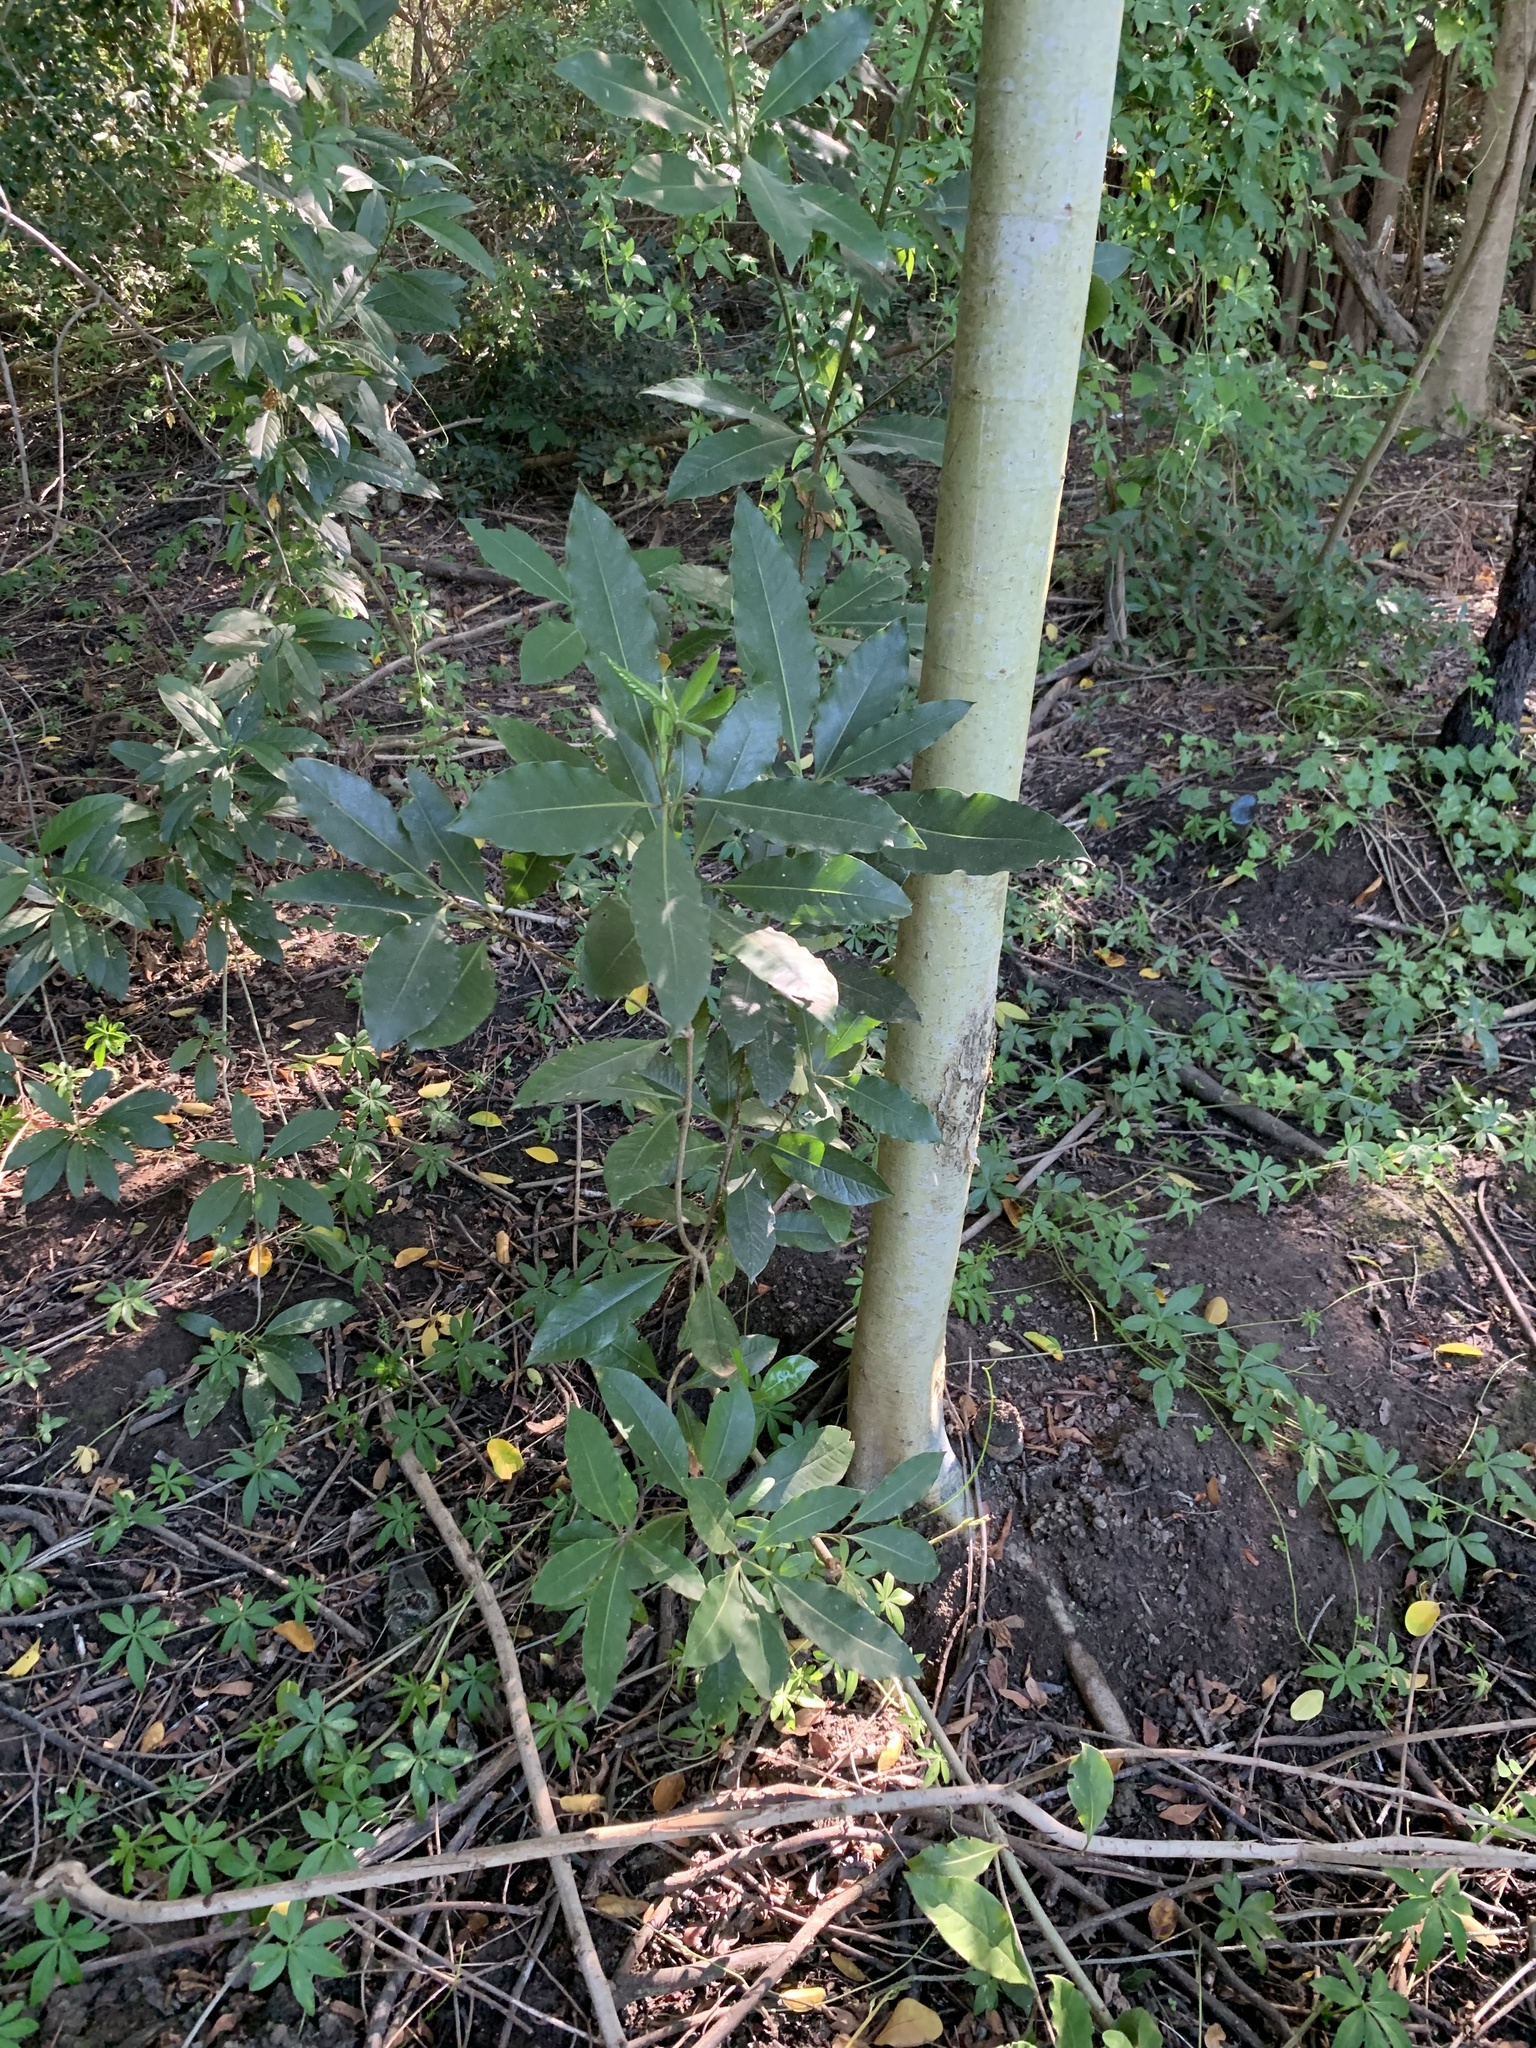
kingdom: Plantae
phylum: Tracheophyta
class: Magnoliopsida
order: Apiales
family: Pittosporaceae
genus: Pittosporum
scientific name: Pittosporum undulatum
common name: Australian cheesewood
